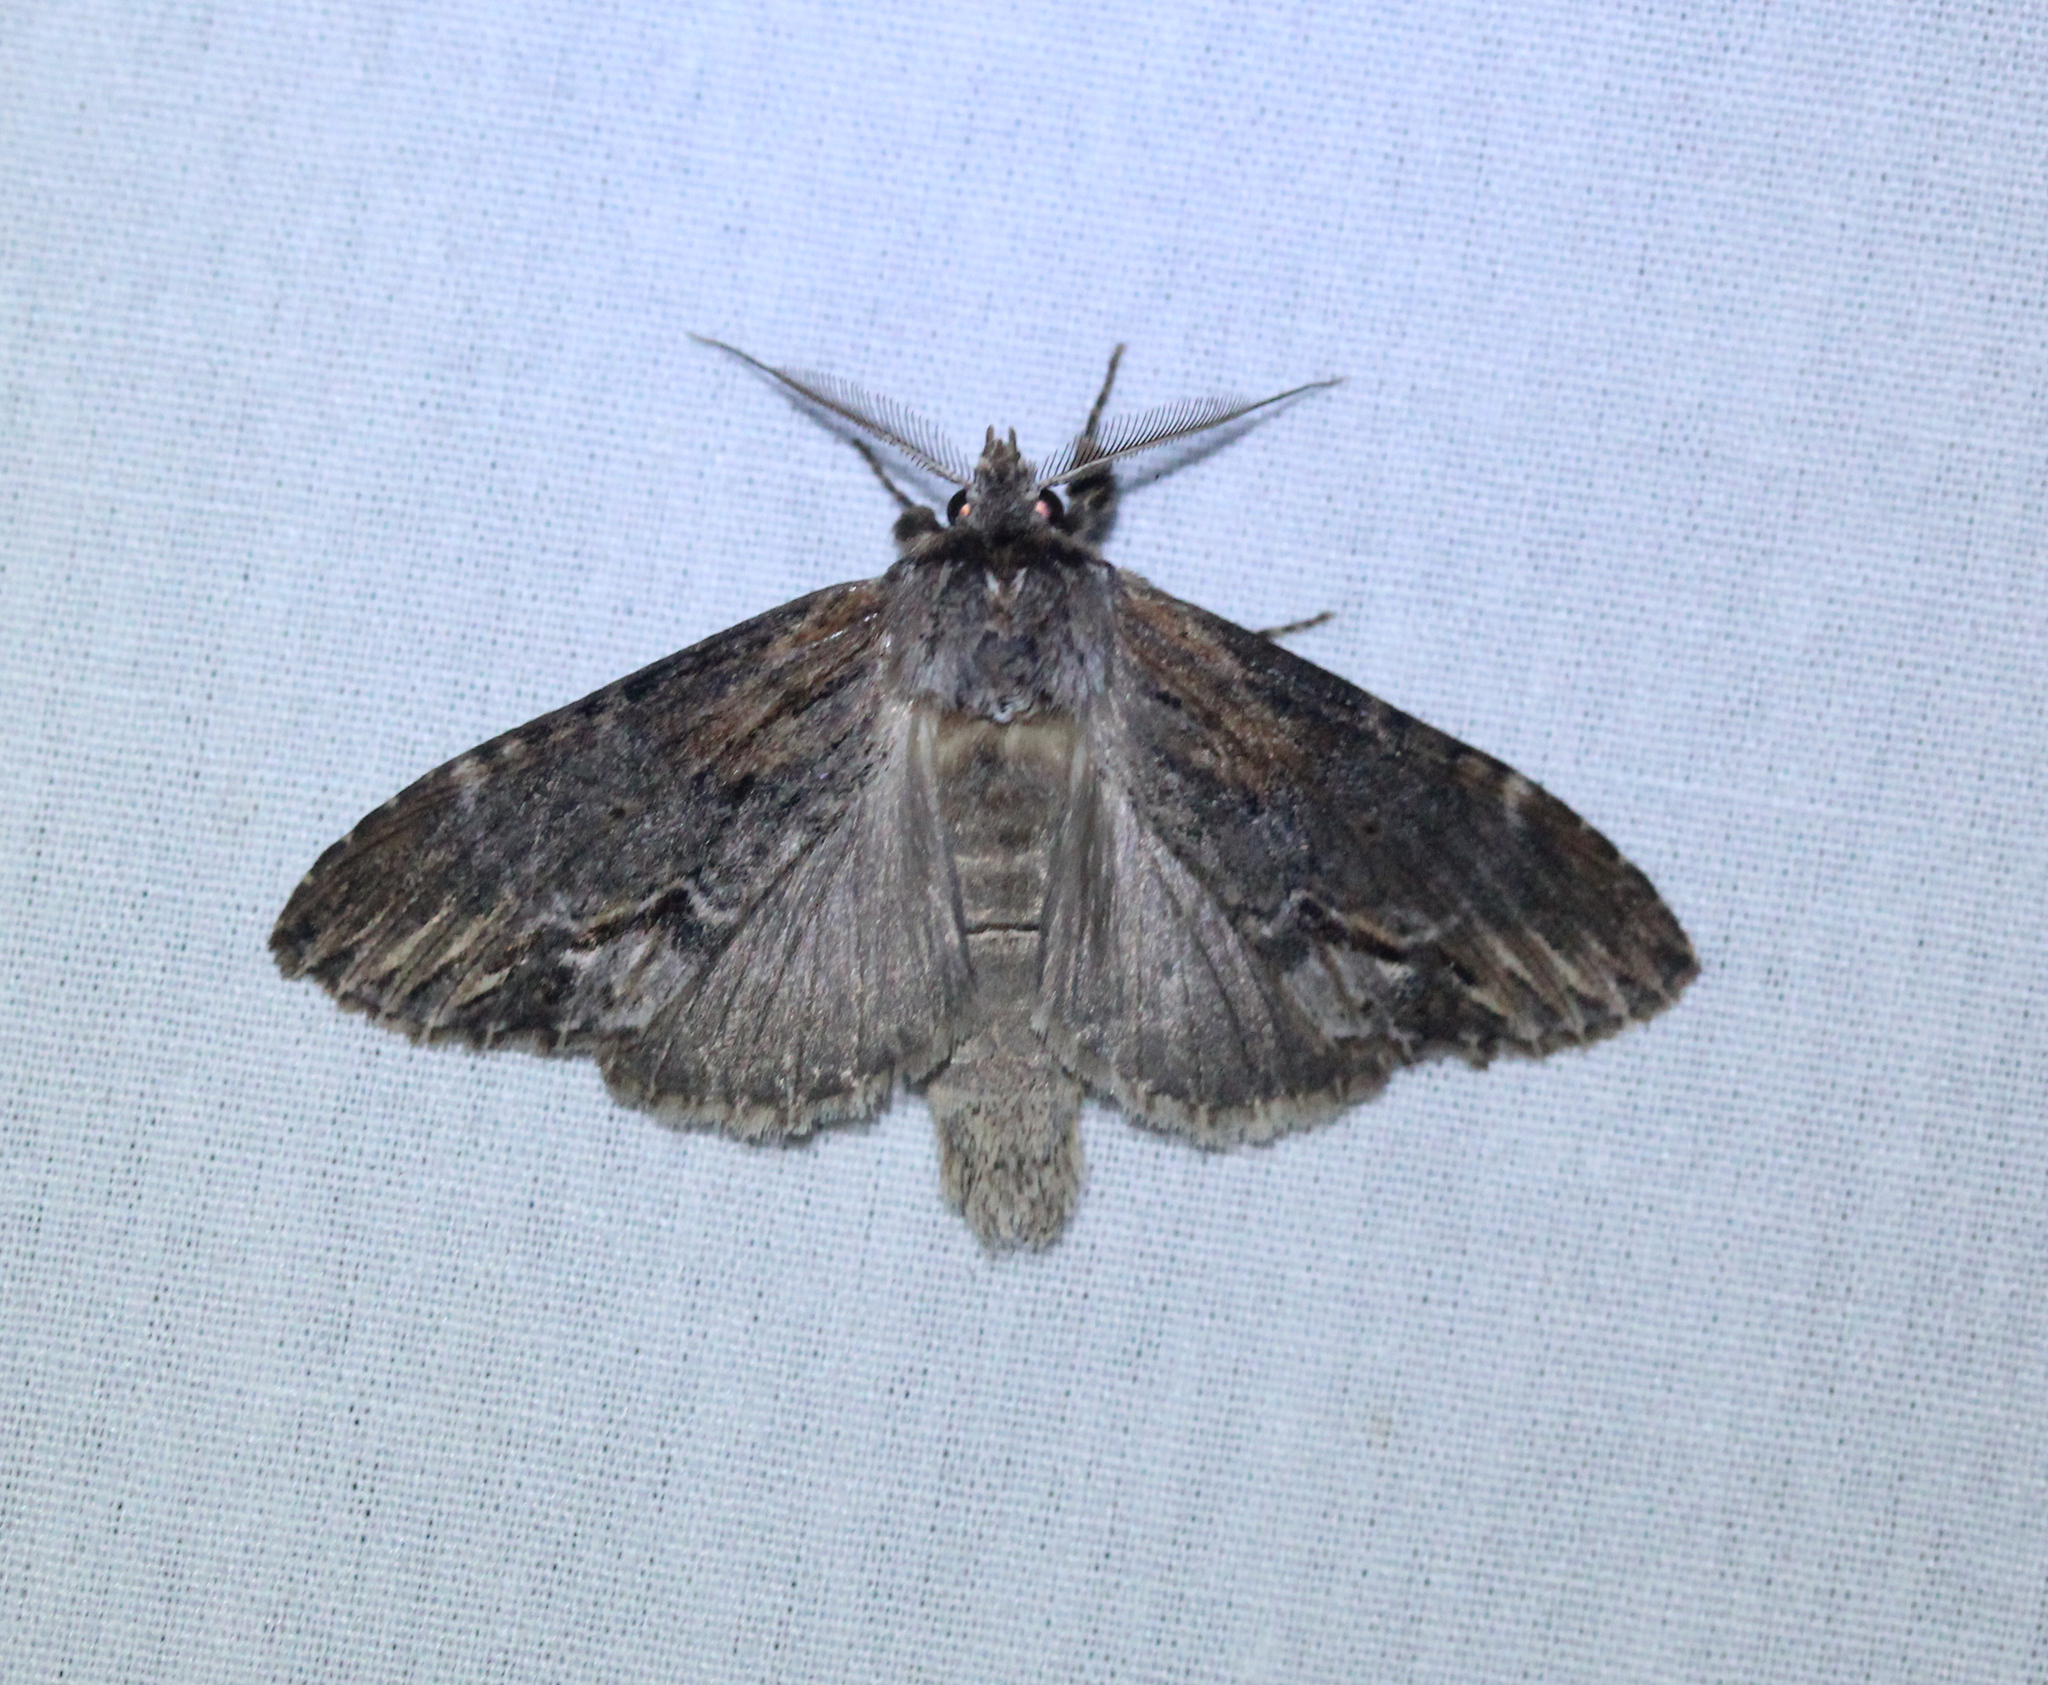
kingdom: Animalia
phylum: Arthropoda
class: Insecta
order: Lepidoptera
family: Notodontidae
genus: Dasylophia
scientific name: Dasylophia thyatiroides
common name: Gray-patched prominent
